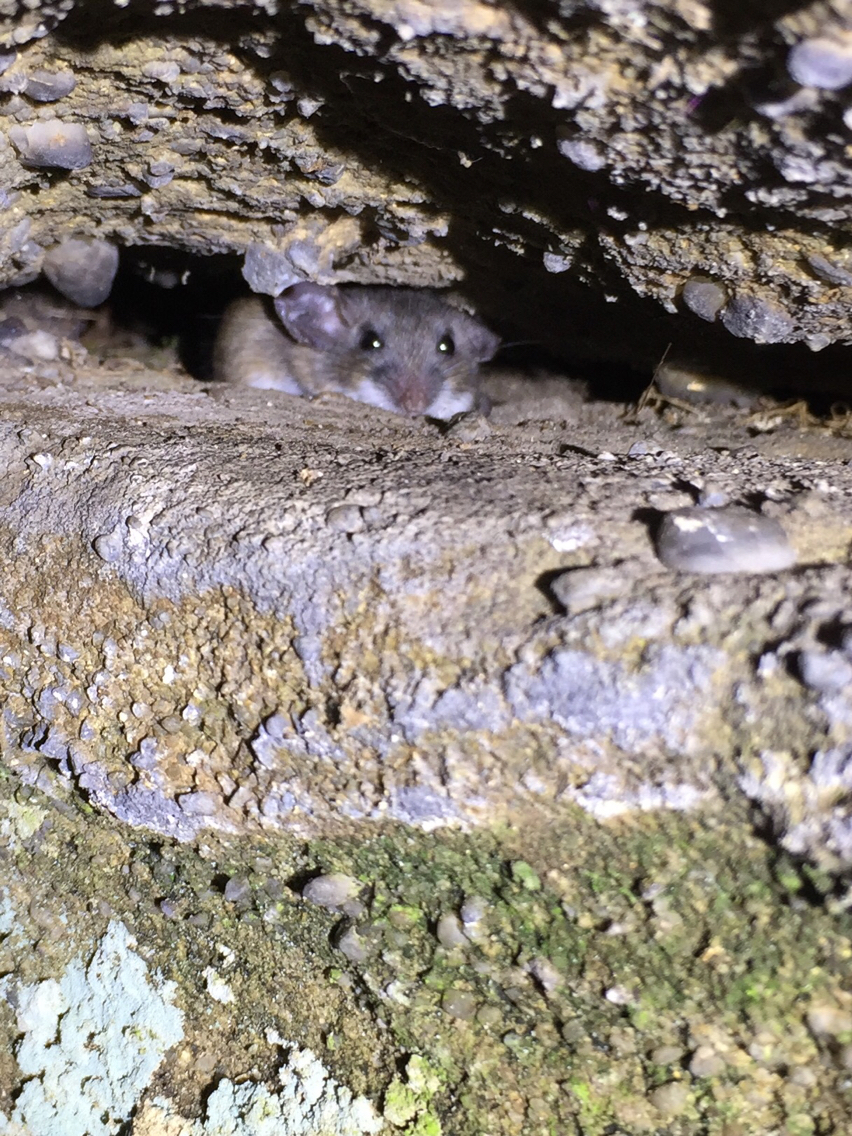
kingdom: Animalia
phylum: Chordata
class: Mammalia
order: Rodentia
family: Cricetidae
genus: Peromyscus
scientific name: Peromyscus leucopus
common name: White-footed deermouse
